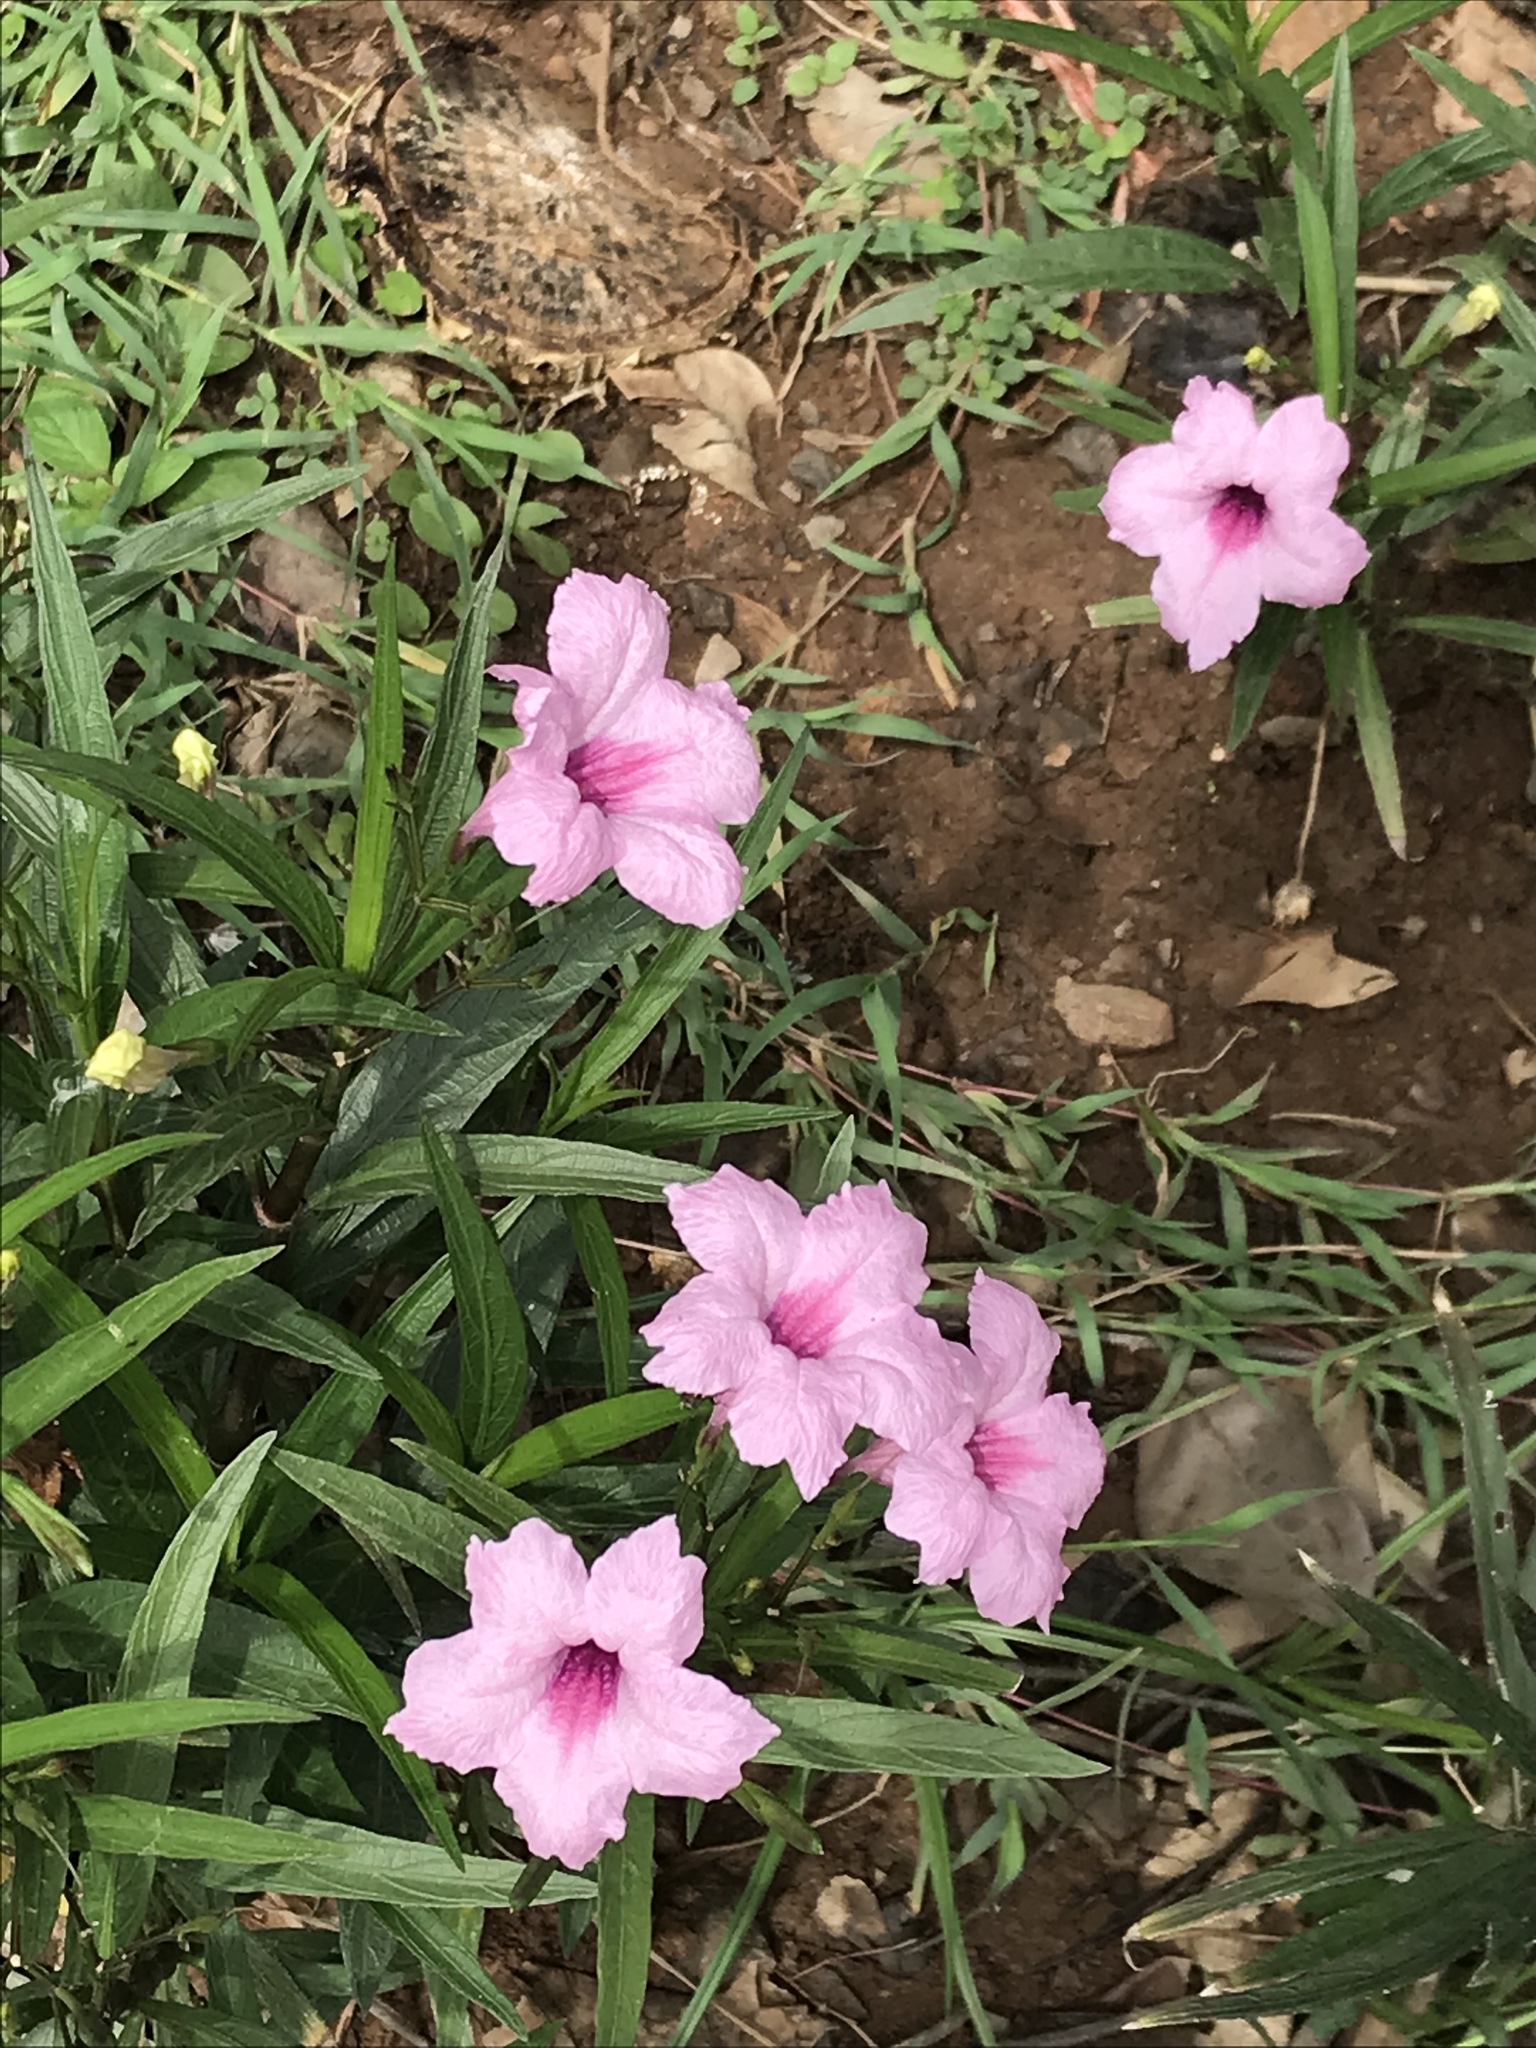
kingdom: Plantae
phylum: Tracheophyta
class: Magnoliopsida
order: Lamiales
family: Acanthaceae
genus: Ruellia
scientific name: Ruellia simplex
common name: Softseed wild petunia
